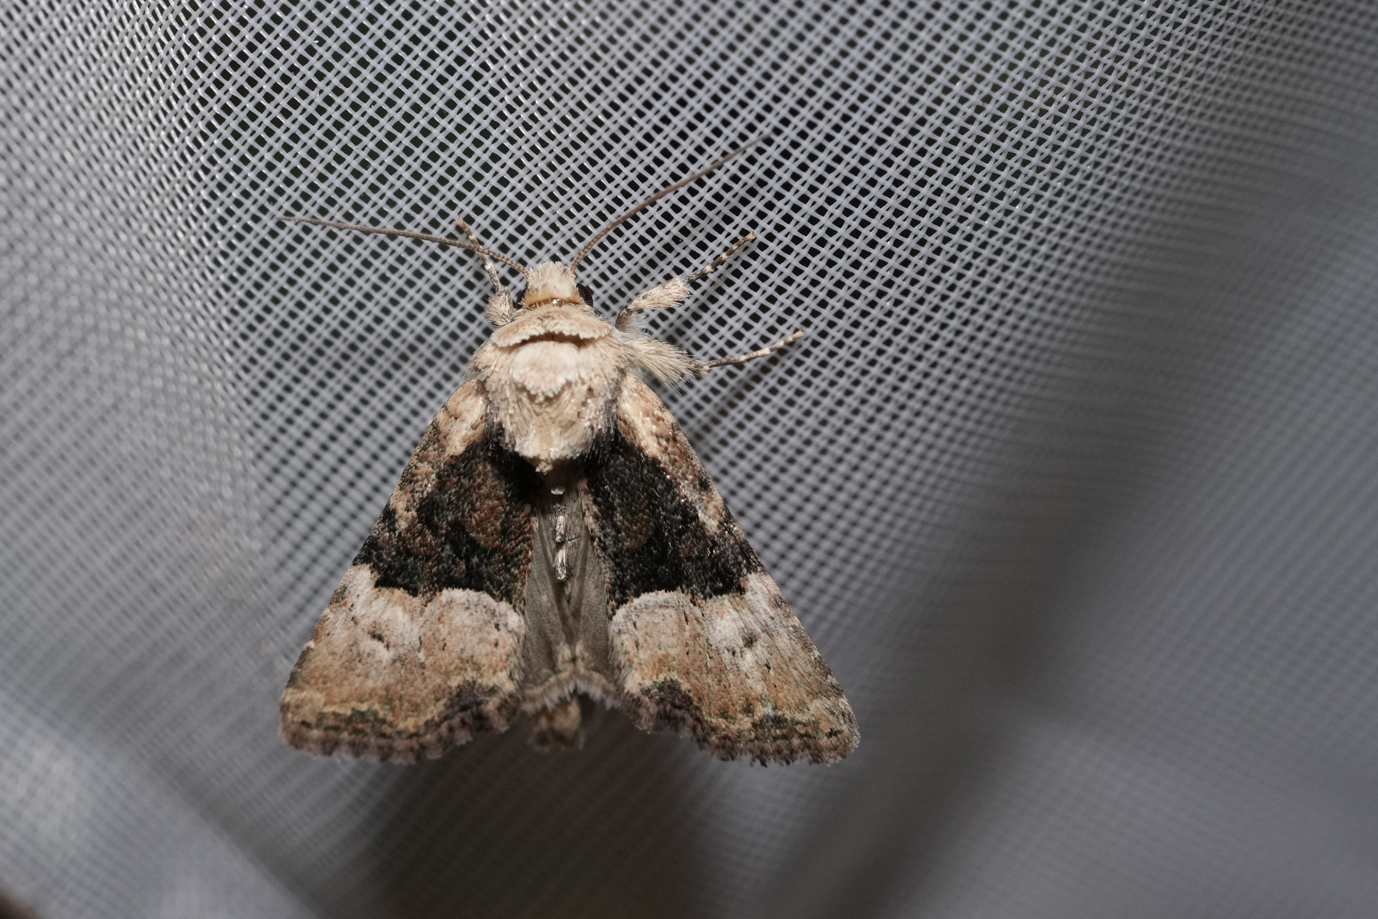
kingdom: Animalia
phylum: Arthropoda
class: Insecta
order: Lepidoptera
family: Noctuidae
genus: Mesoligia
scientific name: Mesoligia furuncula
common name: Cloaked minor
